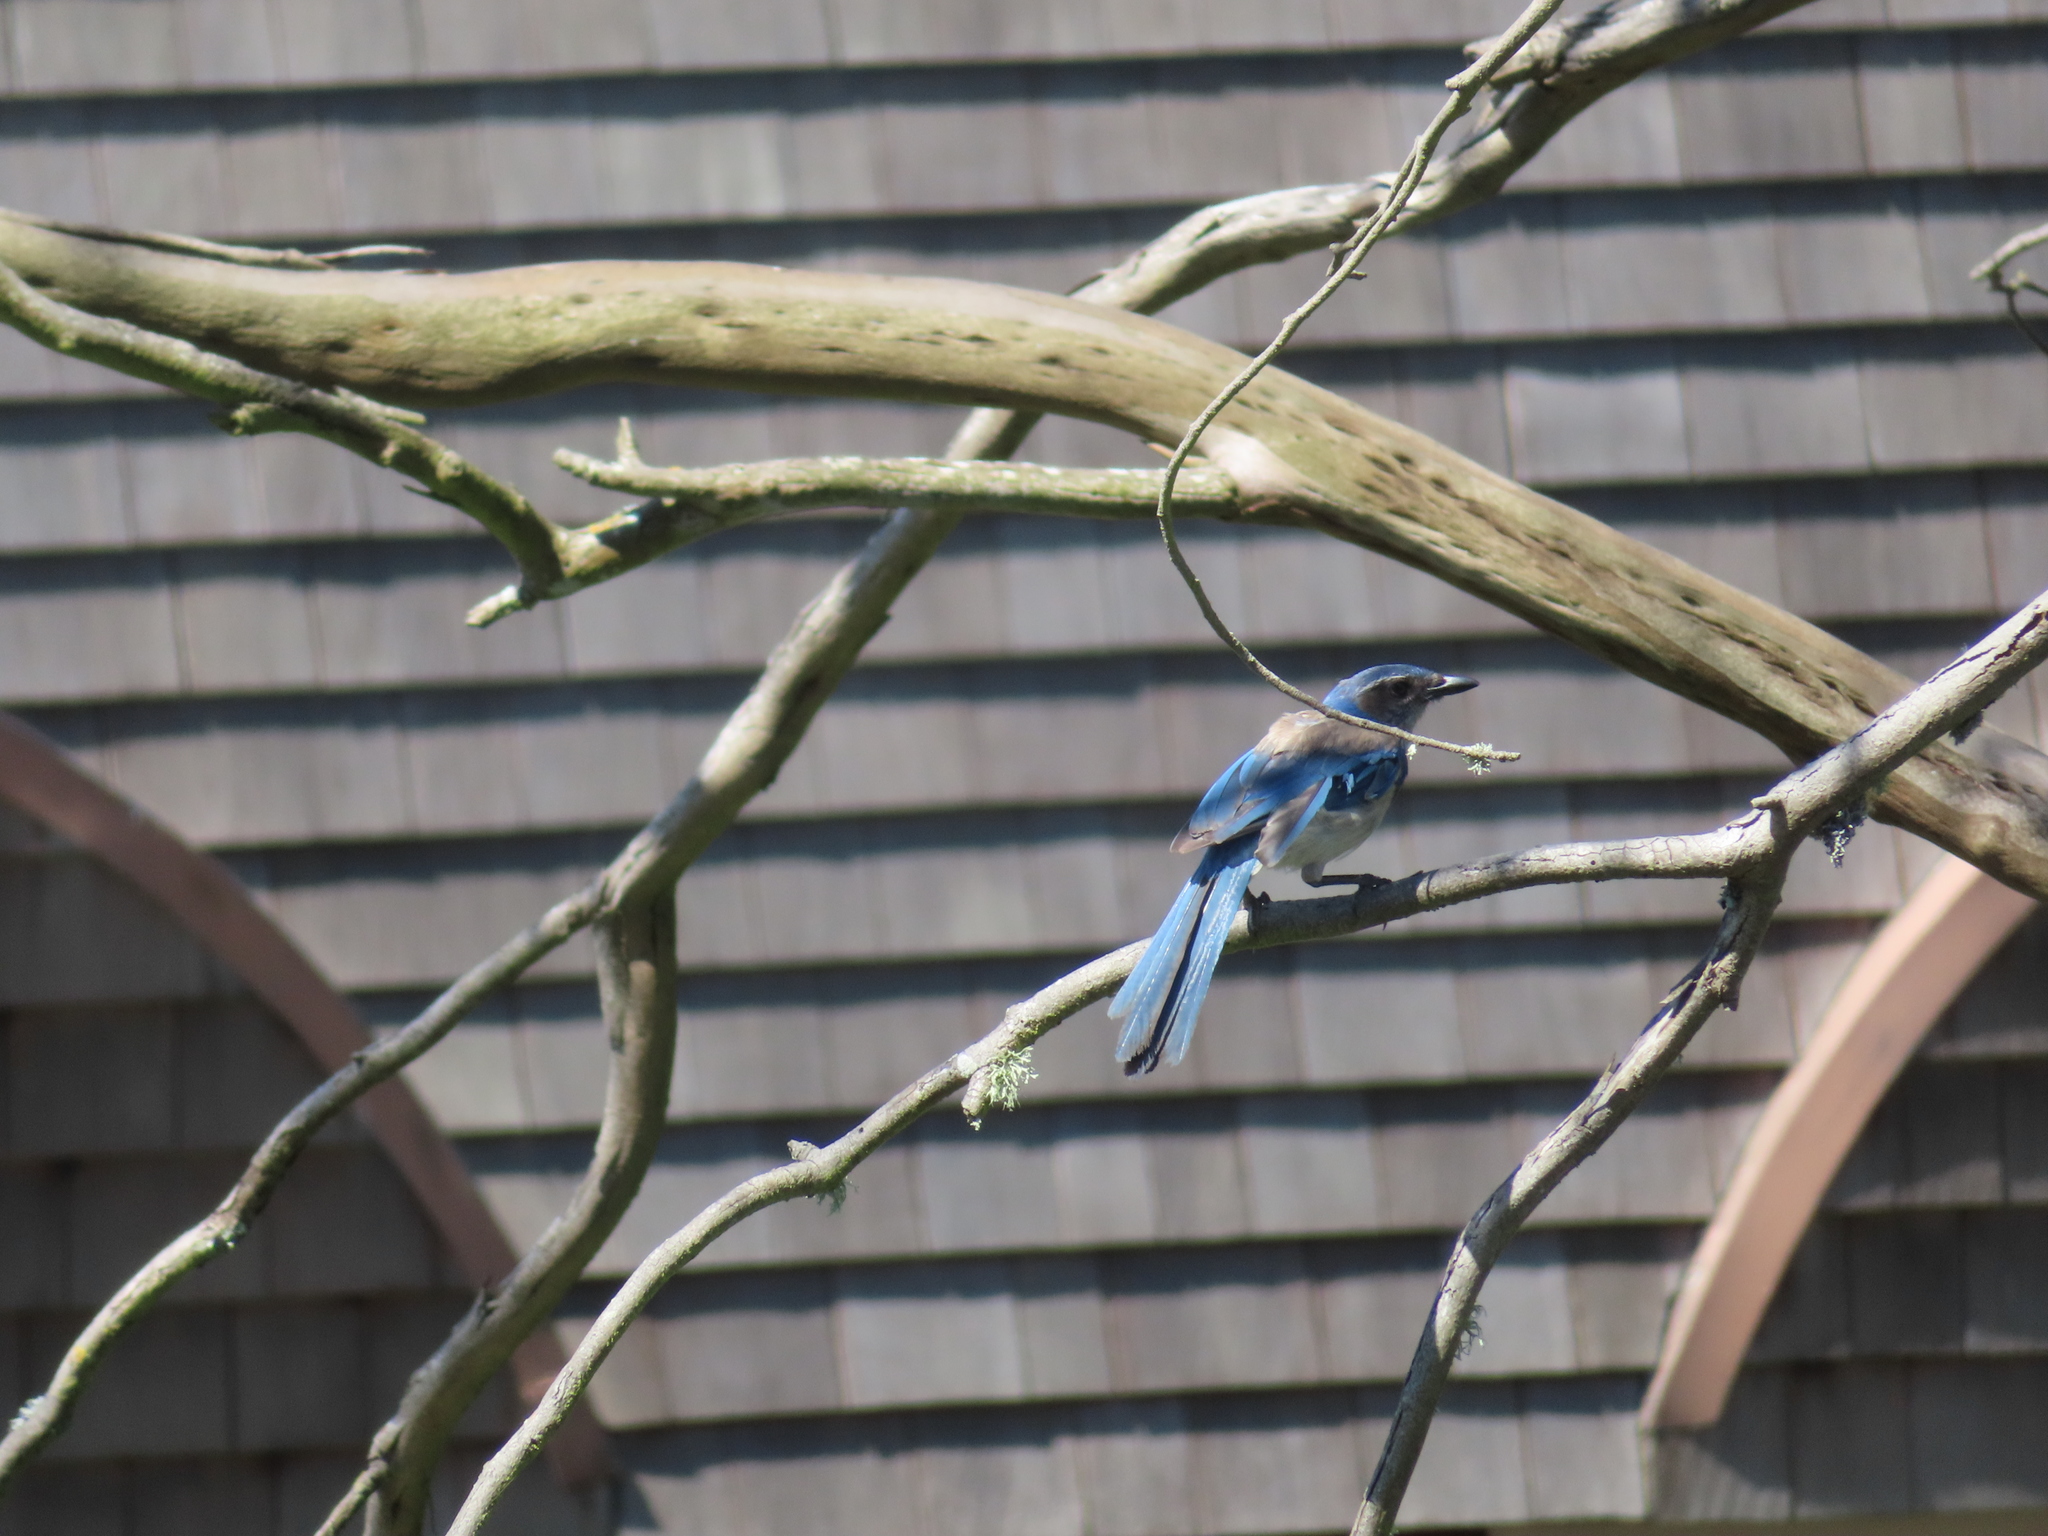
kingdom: Animalia
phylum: Chordata
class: Aves
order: Passeriformes
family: Corvidae
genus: Aphelocoma
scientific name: Aphelocoma californica
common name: California scrub-jay
